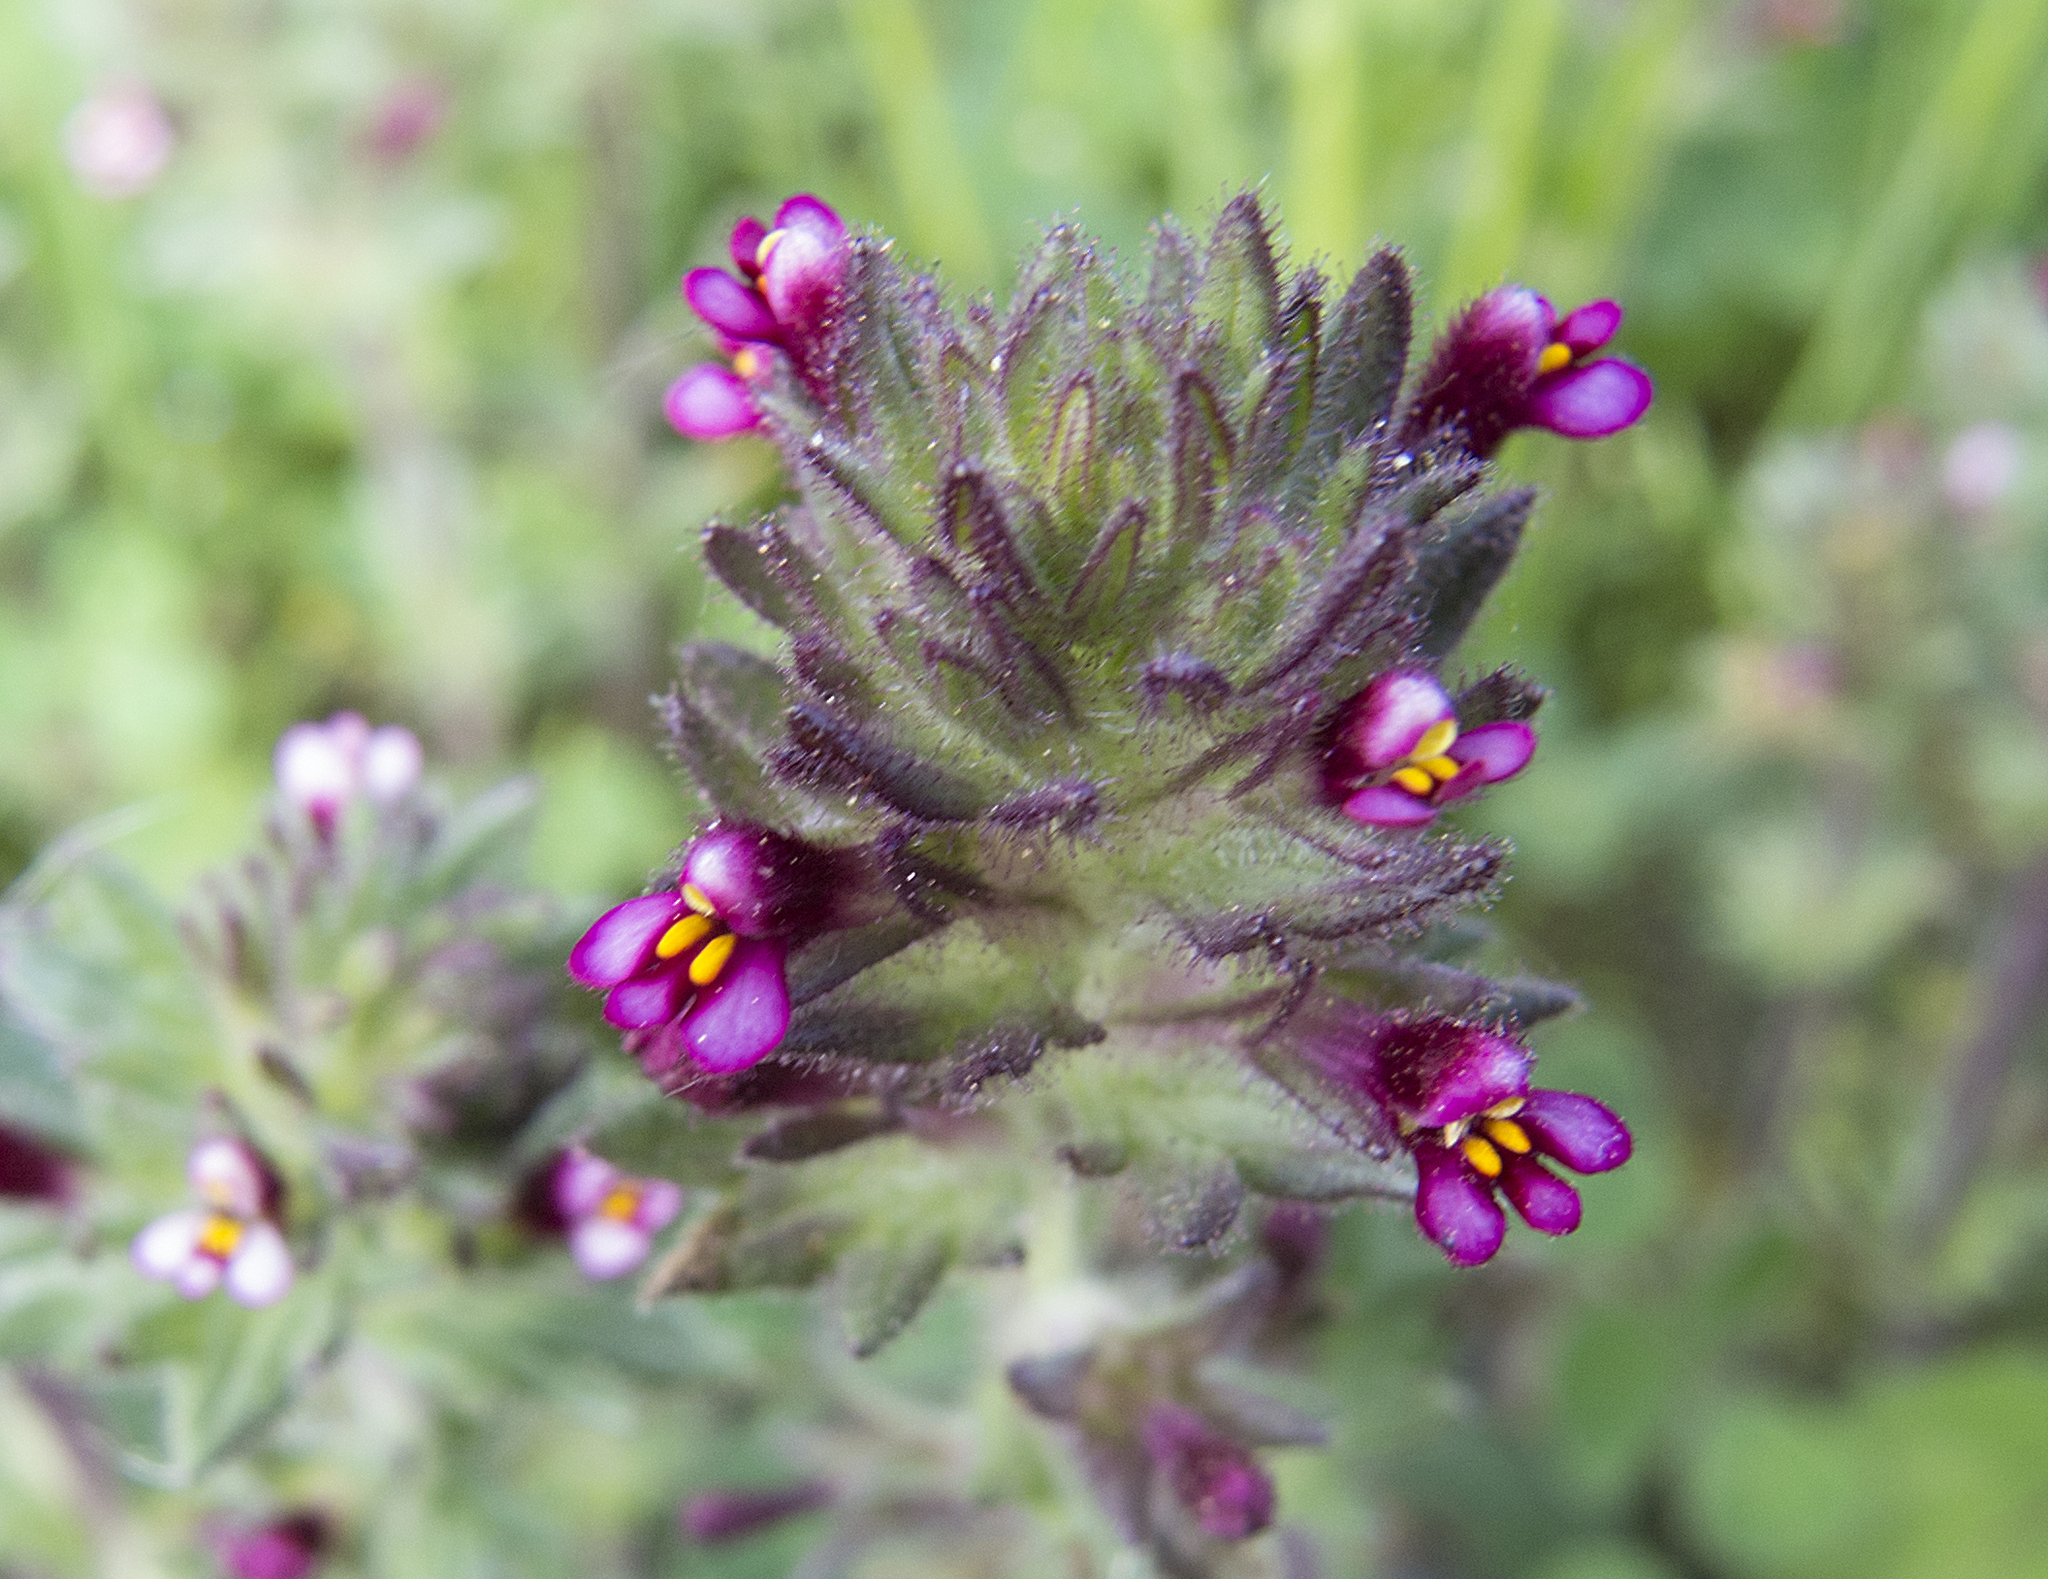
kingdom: Plantae
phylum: Tracheophyta
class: Magnoliopsida
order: Lamiales
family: Orobanchaceae
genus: Parentucellia
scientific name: Parentucellia latifolia
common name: Broadleaf glandweed
